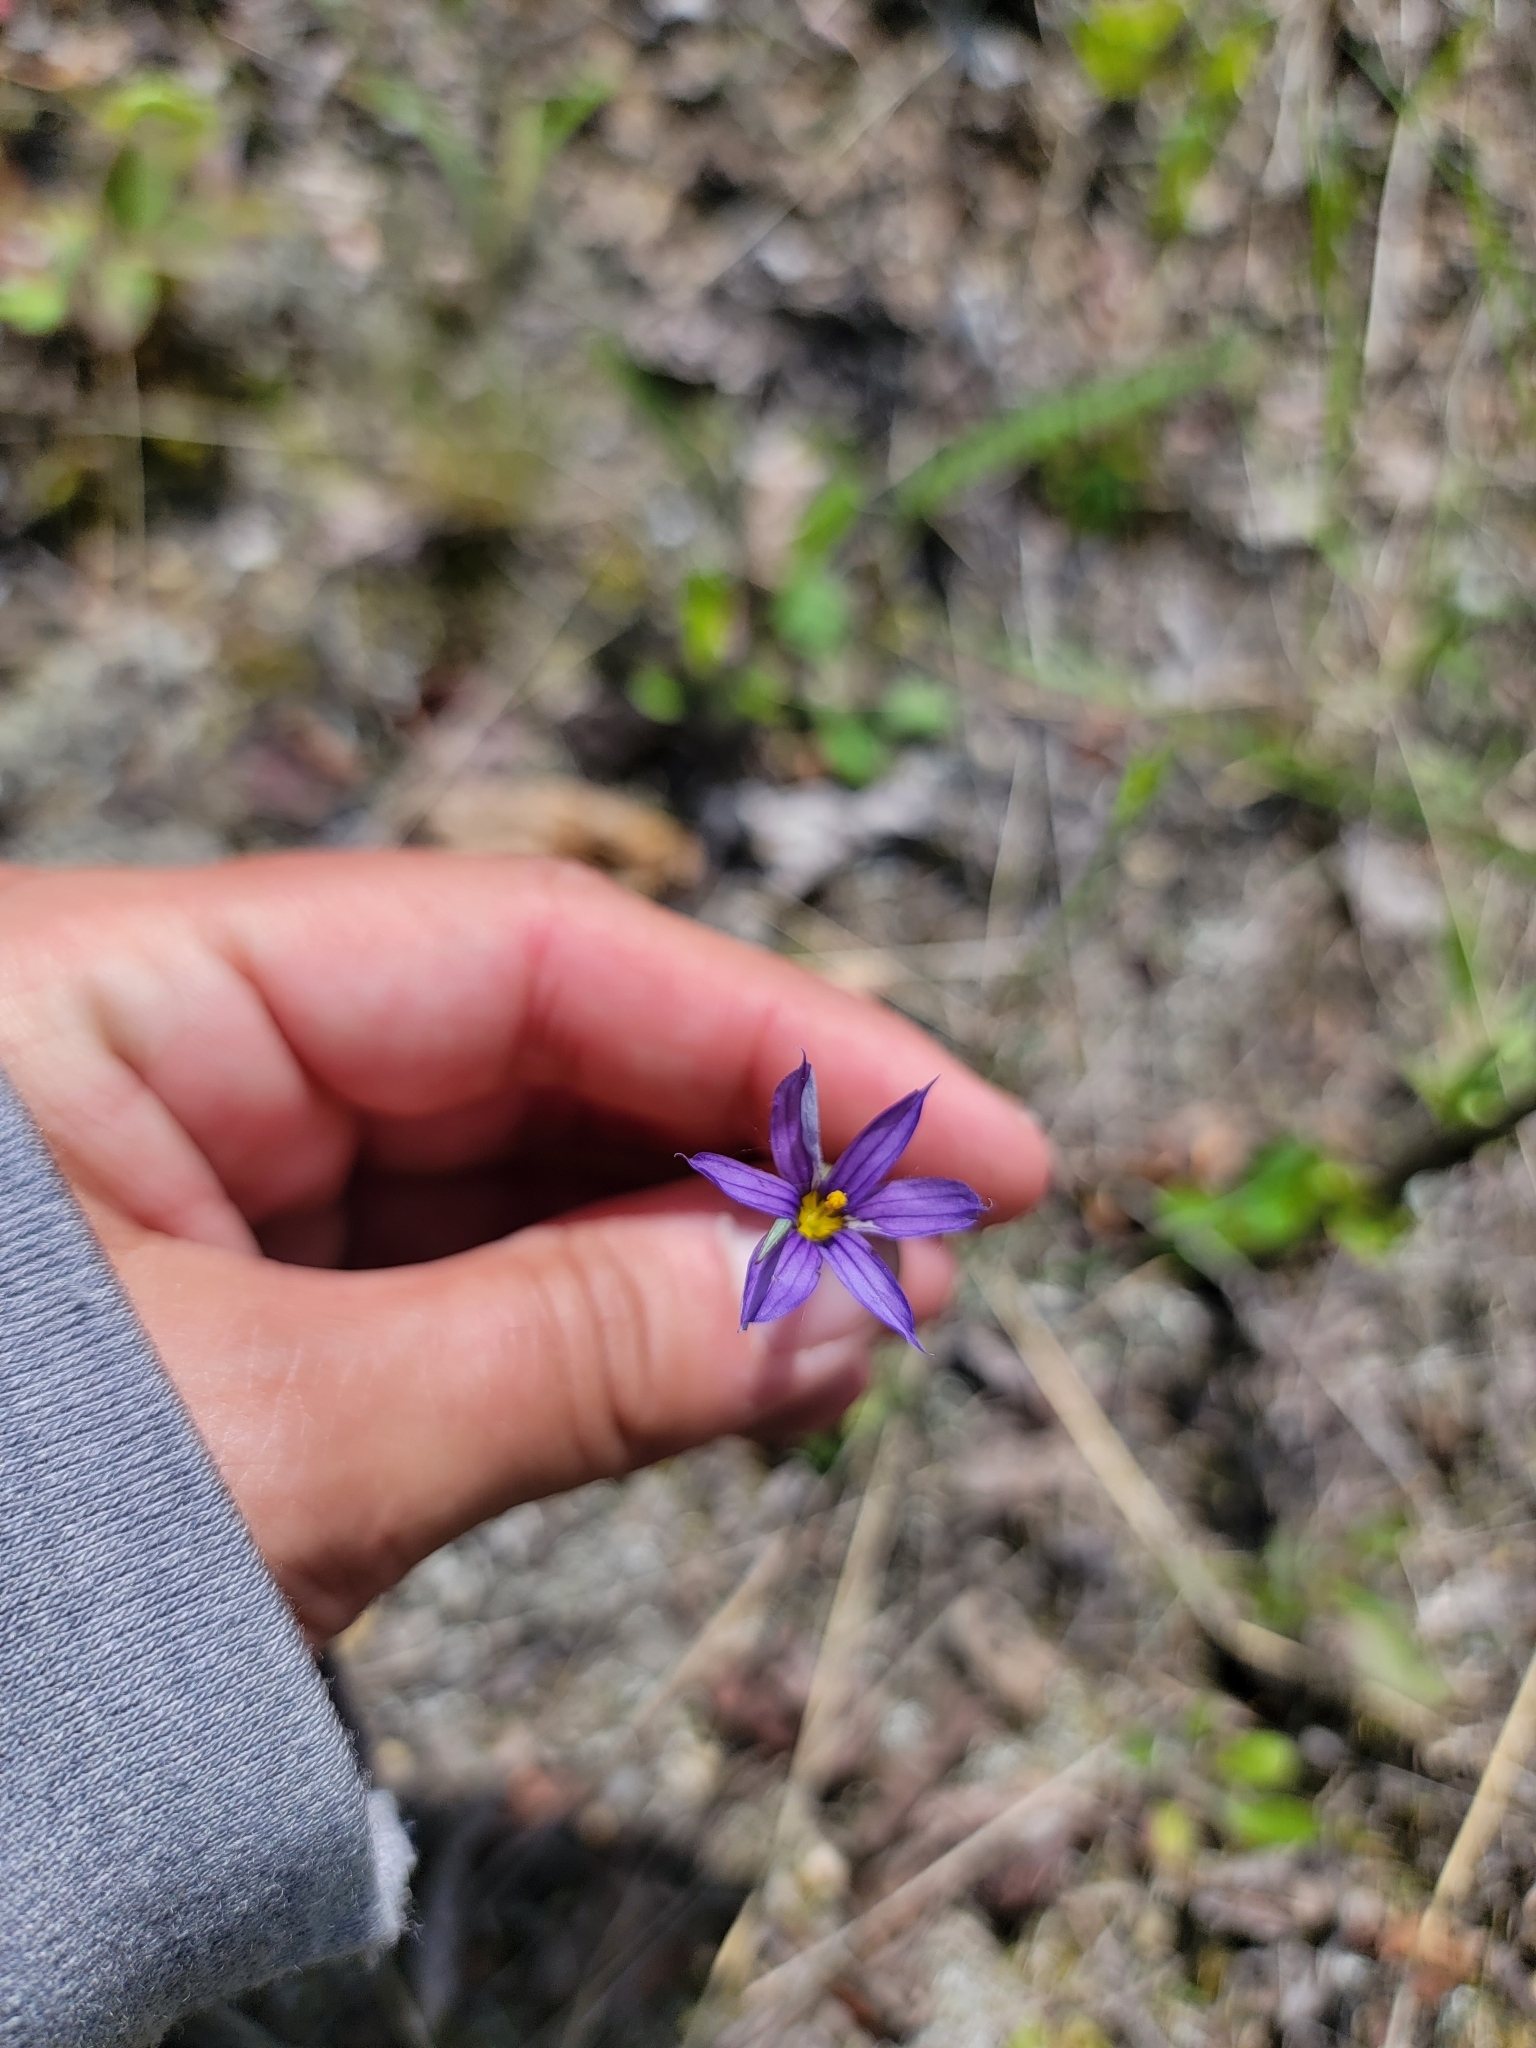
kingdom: Plantae
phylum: Tracheophyta
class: Liliopsida
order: Asparagales
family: Iridaceae
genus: Sisyrinchium
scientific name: Sisyrinchium montanum
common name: American blue-eyed-grass
